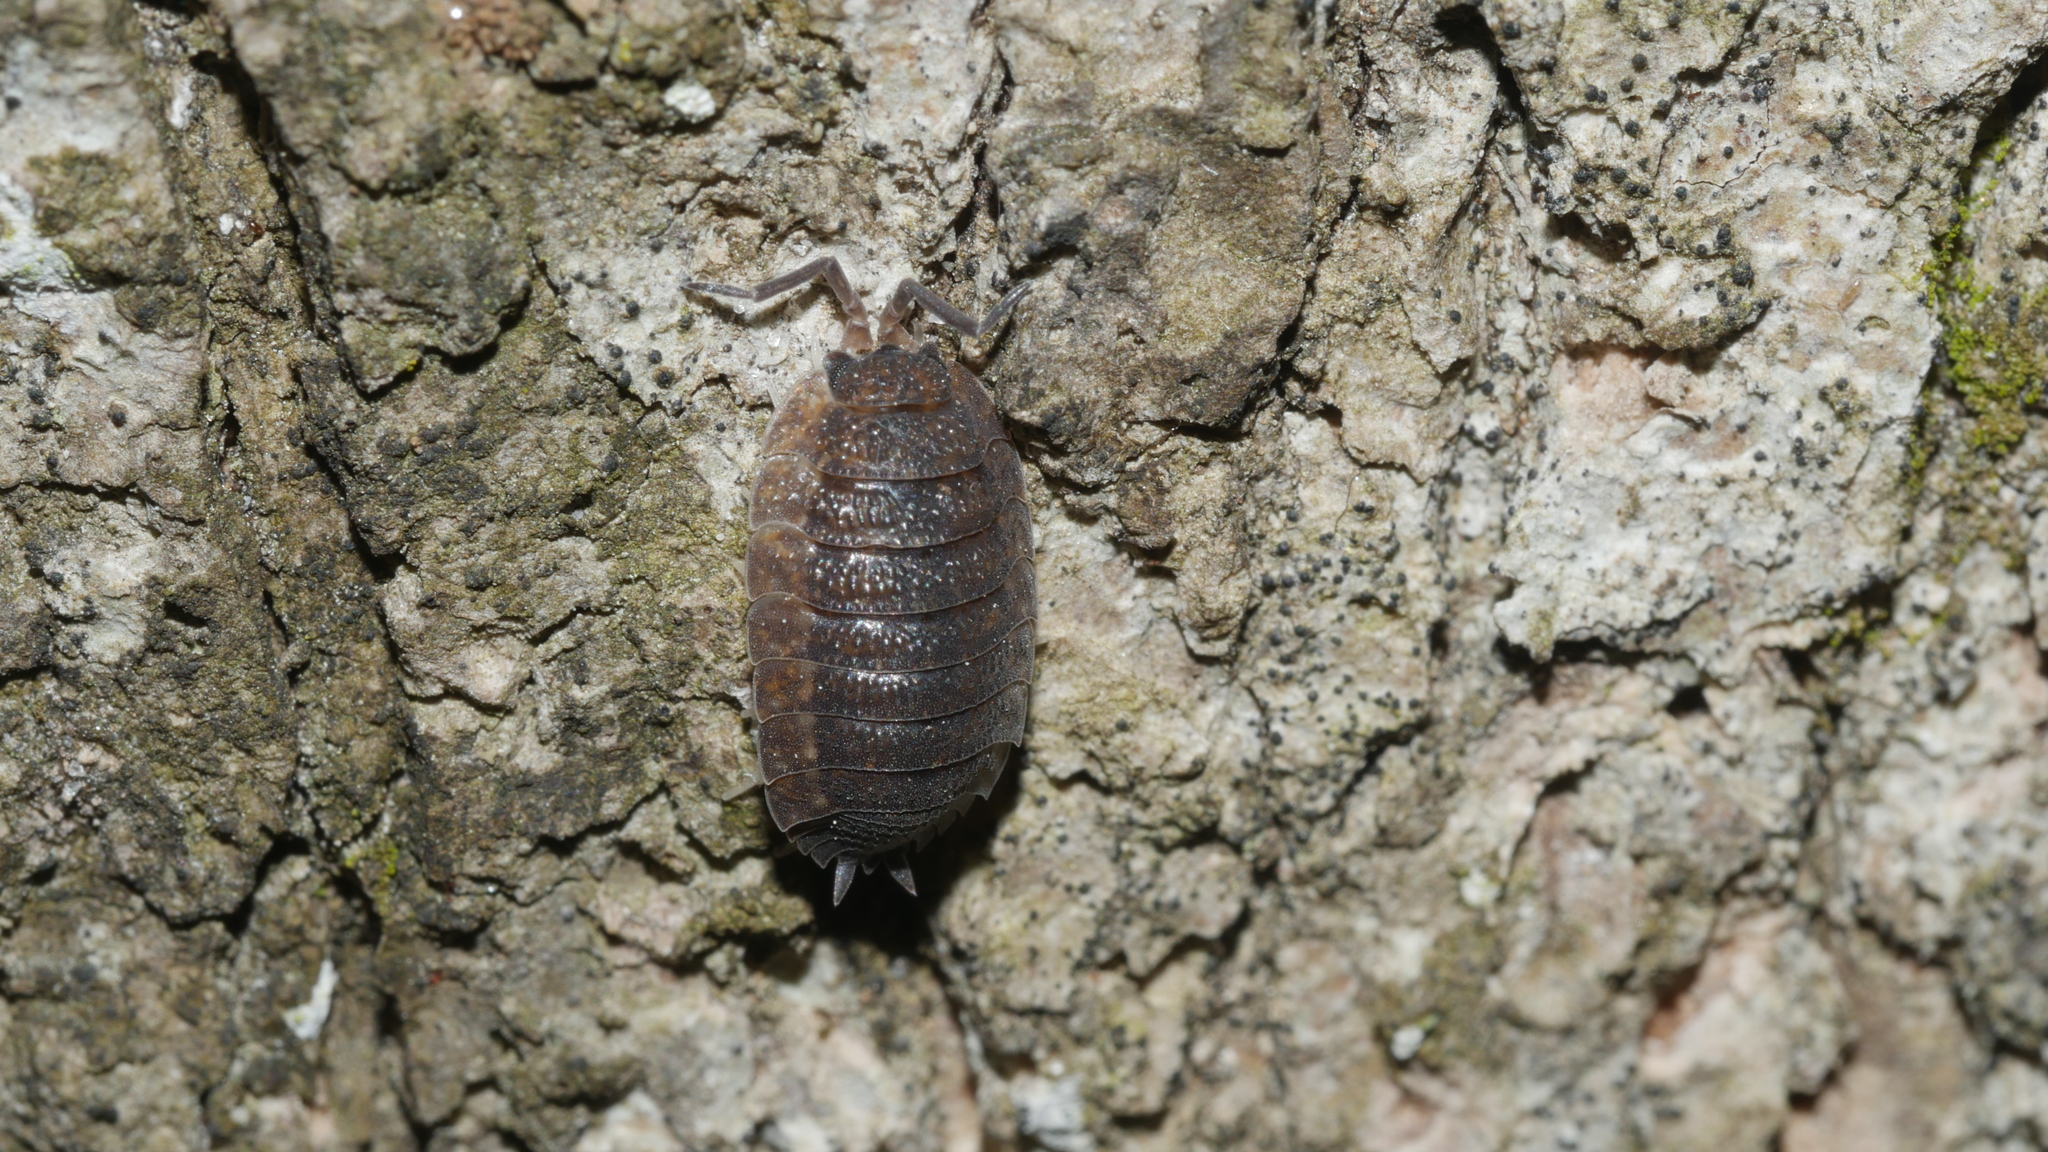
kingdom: Animalia
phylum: Arthropoda
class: Malacostraca
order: Isopoda
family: Porcellionidae
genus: Porcellio
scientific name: Porcellio scaber
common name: Common rough woodlouse
